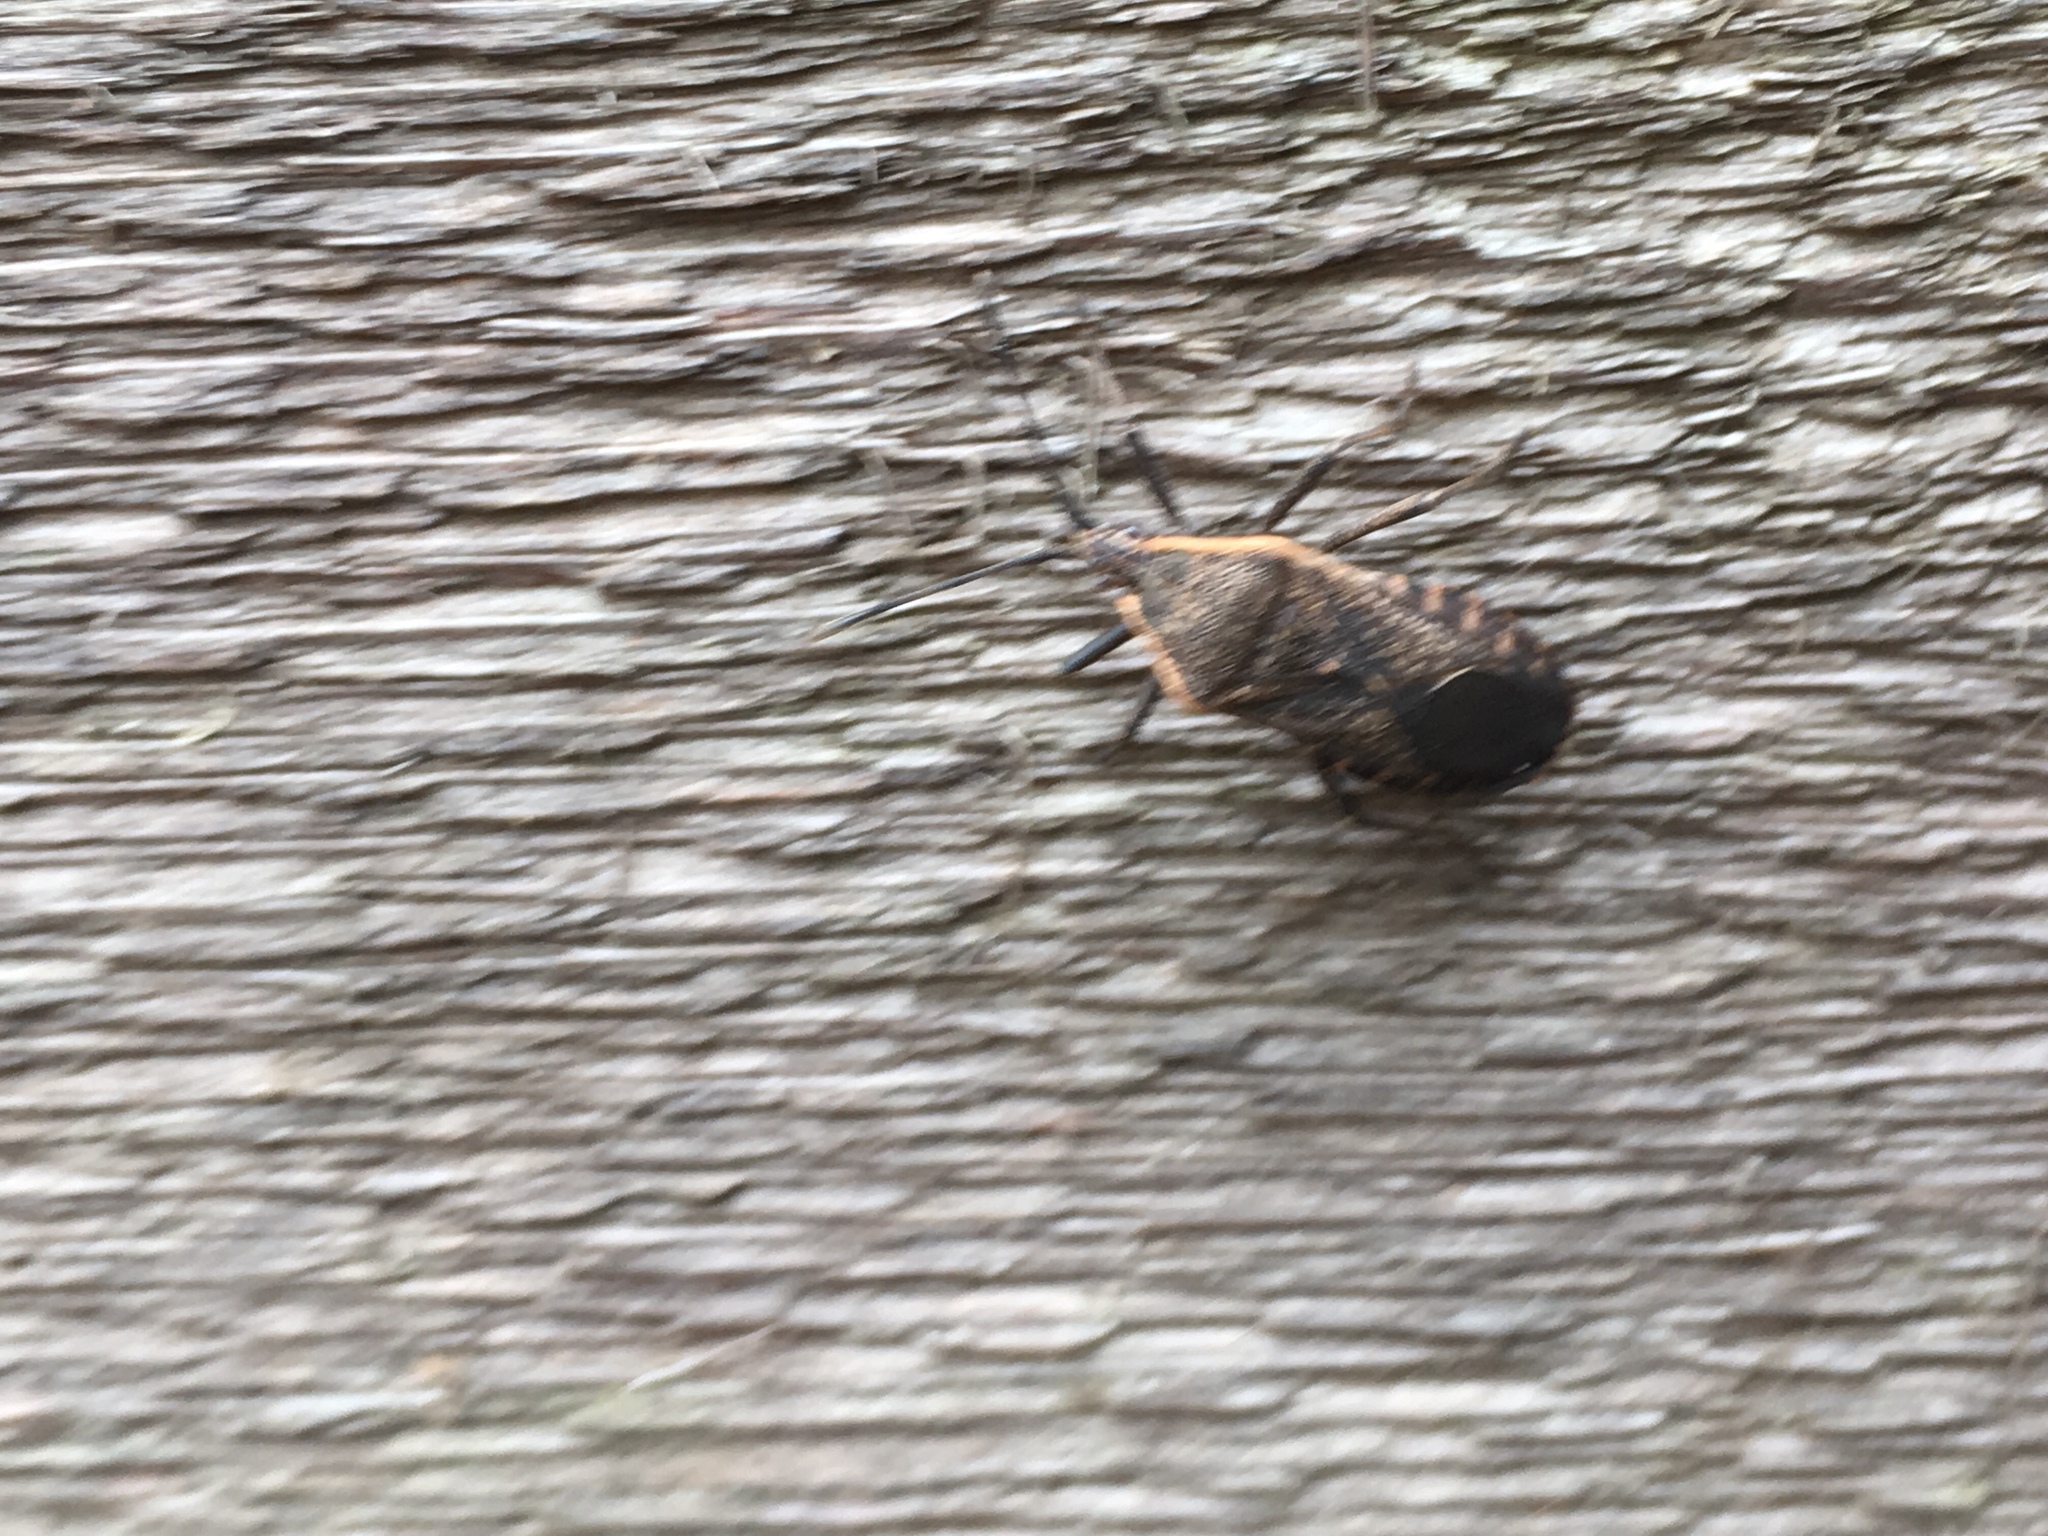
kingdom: Animalia
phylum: Arthropoda
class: Insecta
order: Hemiptera
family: Coreidae
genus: Anasa
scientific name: Anasa tristis
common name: Squash bug
